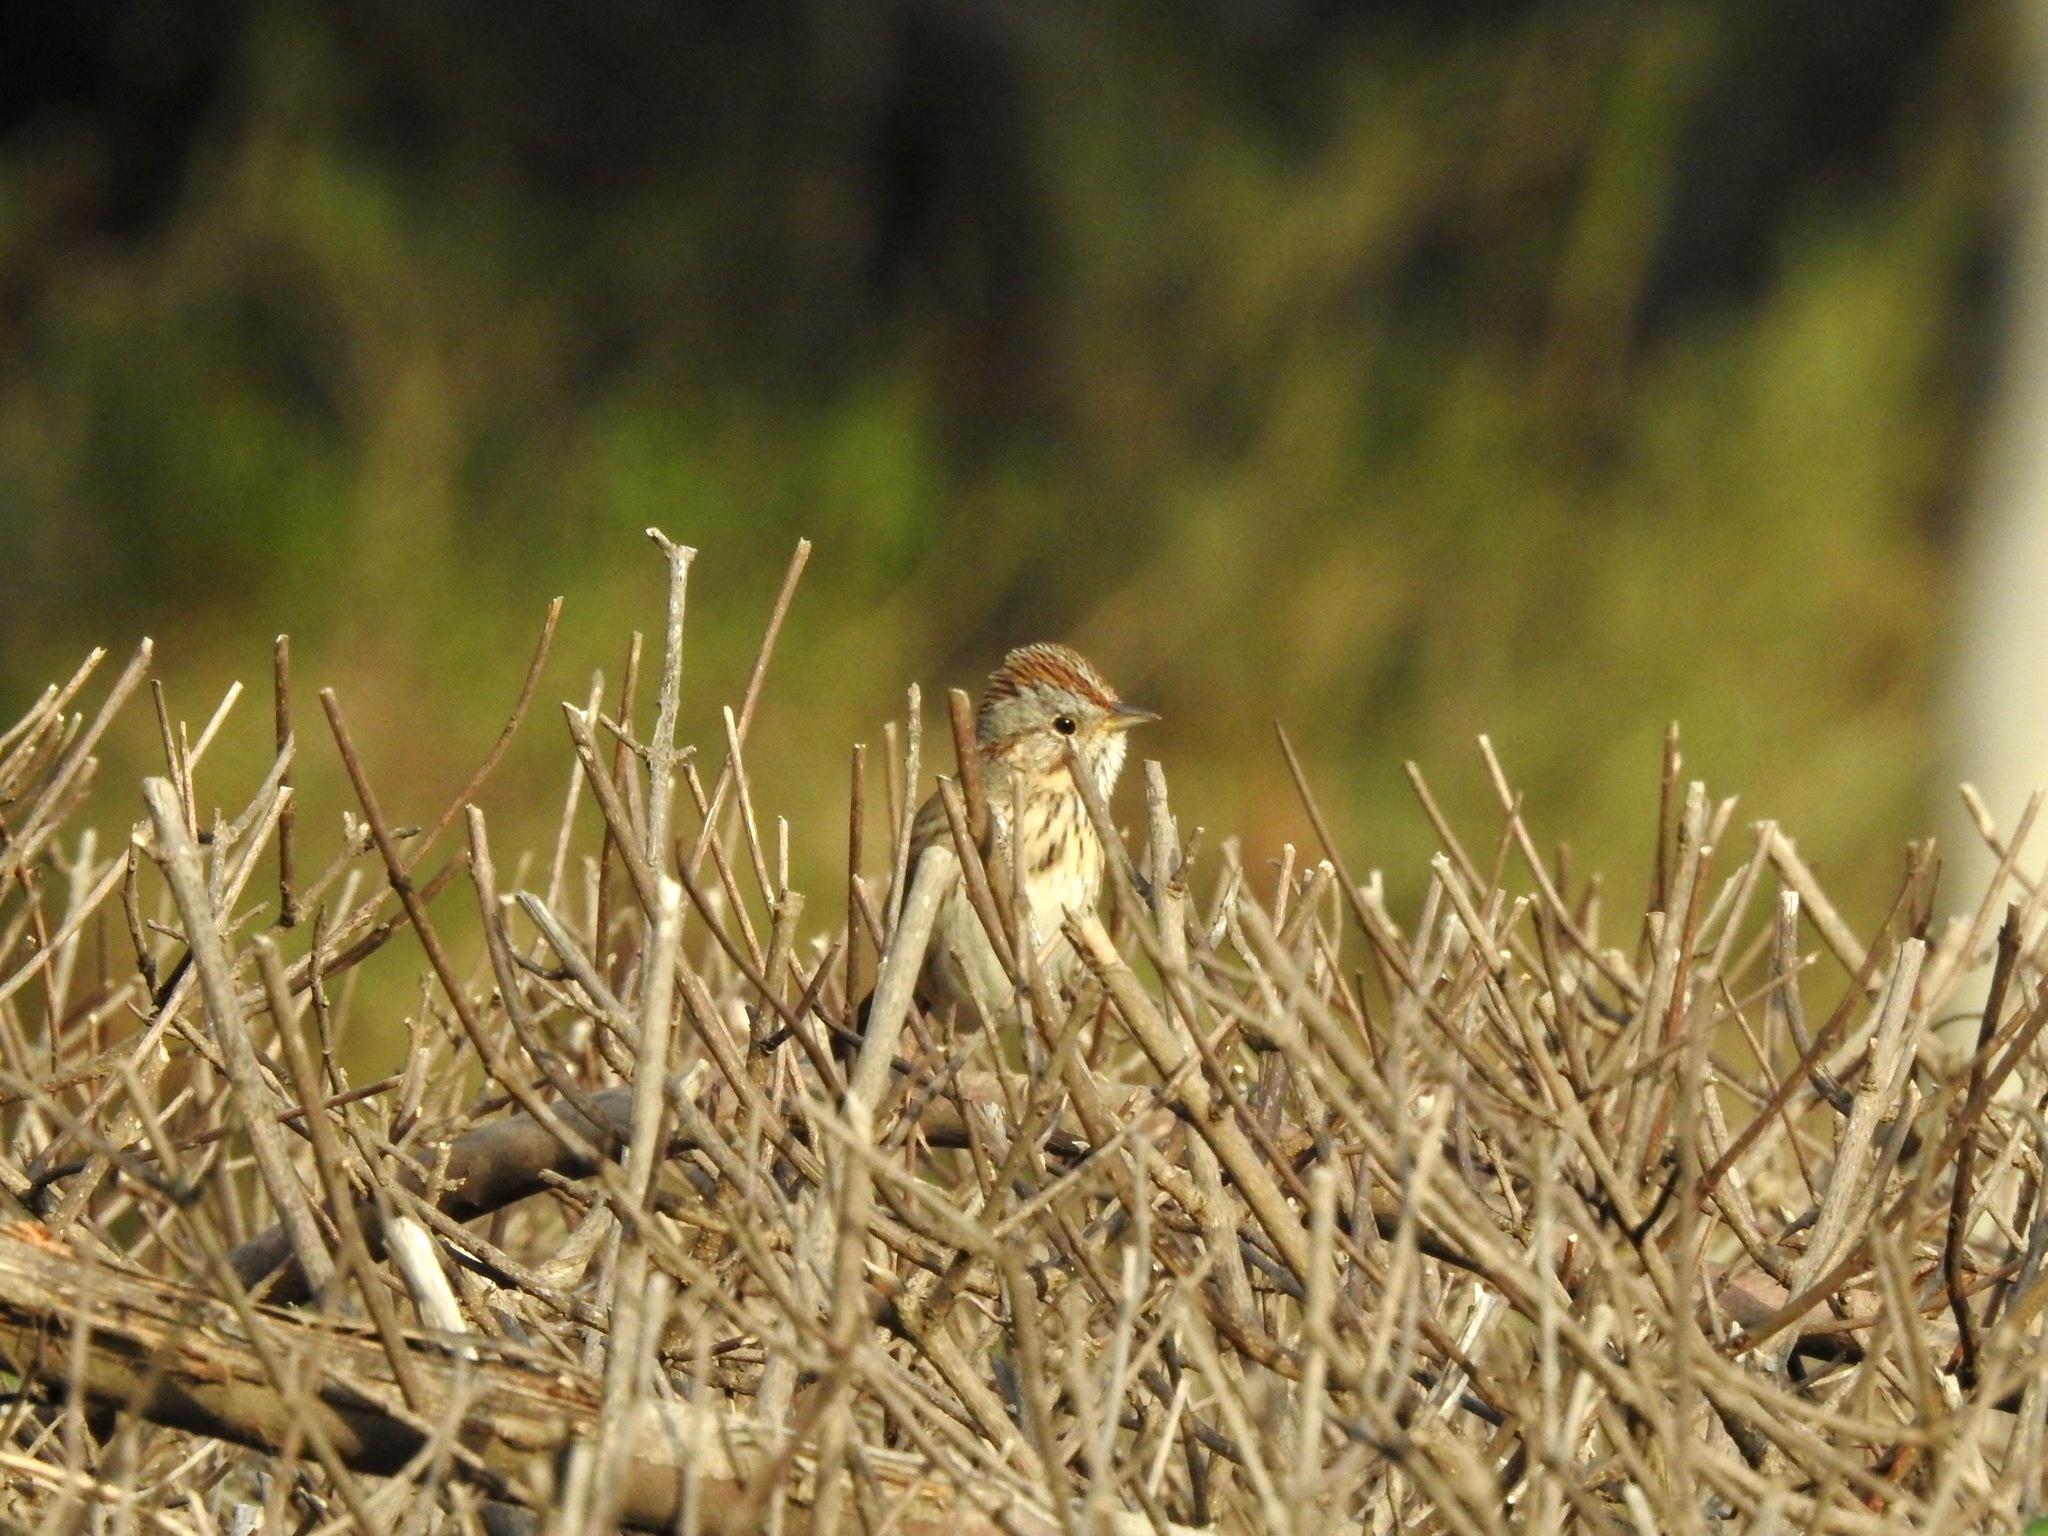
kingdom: Animalia
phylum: Chordata
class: Aves
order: Passeriformes
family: Passerellidae
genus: Melospiza
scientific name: Melospiza lincolnii
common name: Lincoln's sparrow
